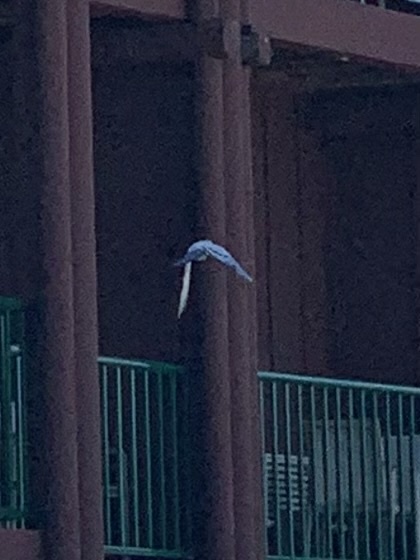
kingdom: Animalia
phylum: Chordata
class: Aves
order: Columbiformes
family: Columbidae
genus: Columba
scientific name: Columba livia
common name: Rock pigeon
